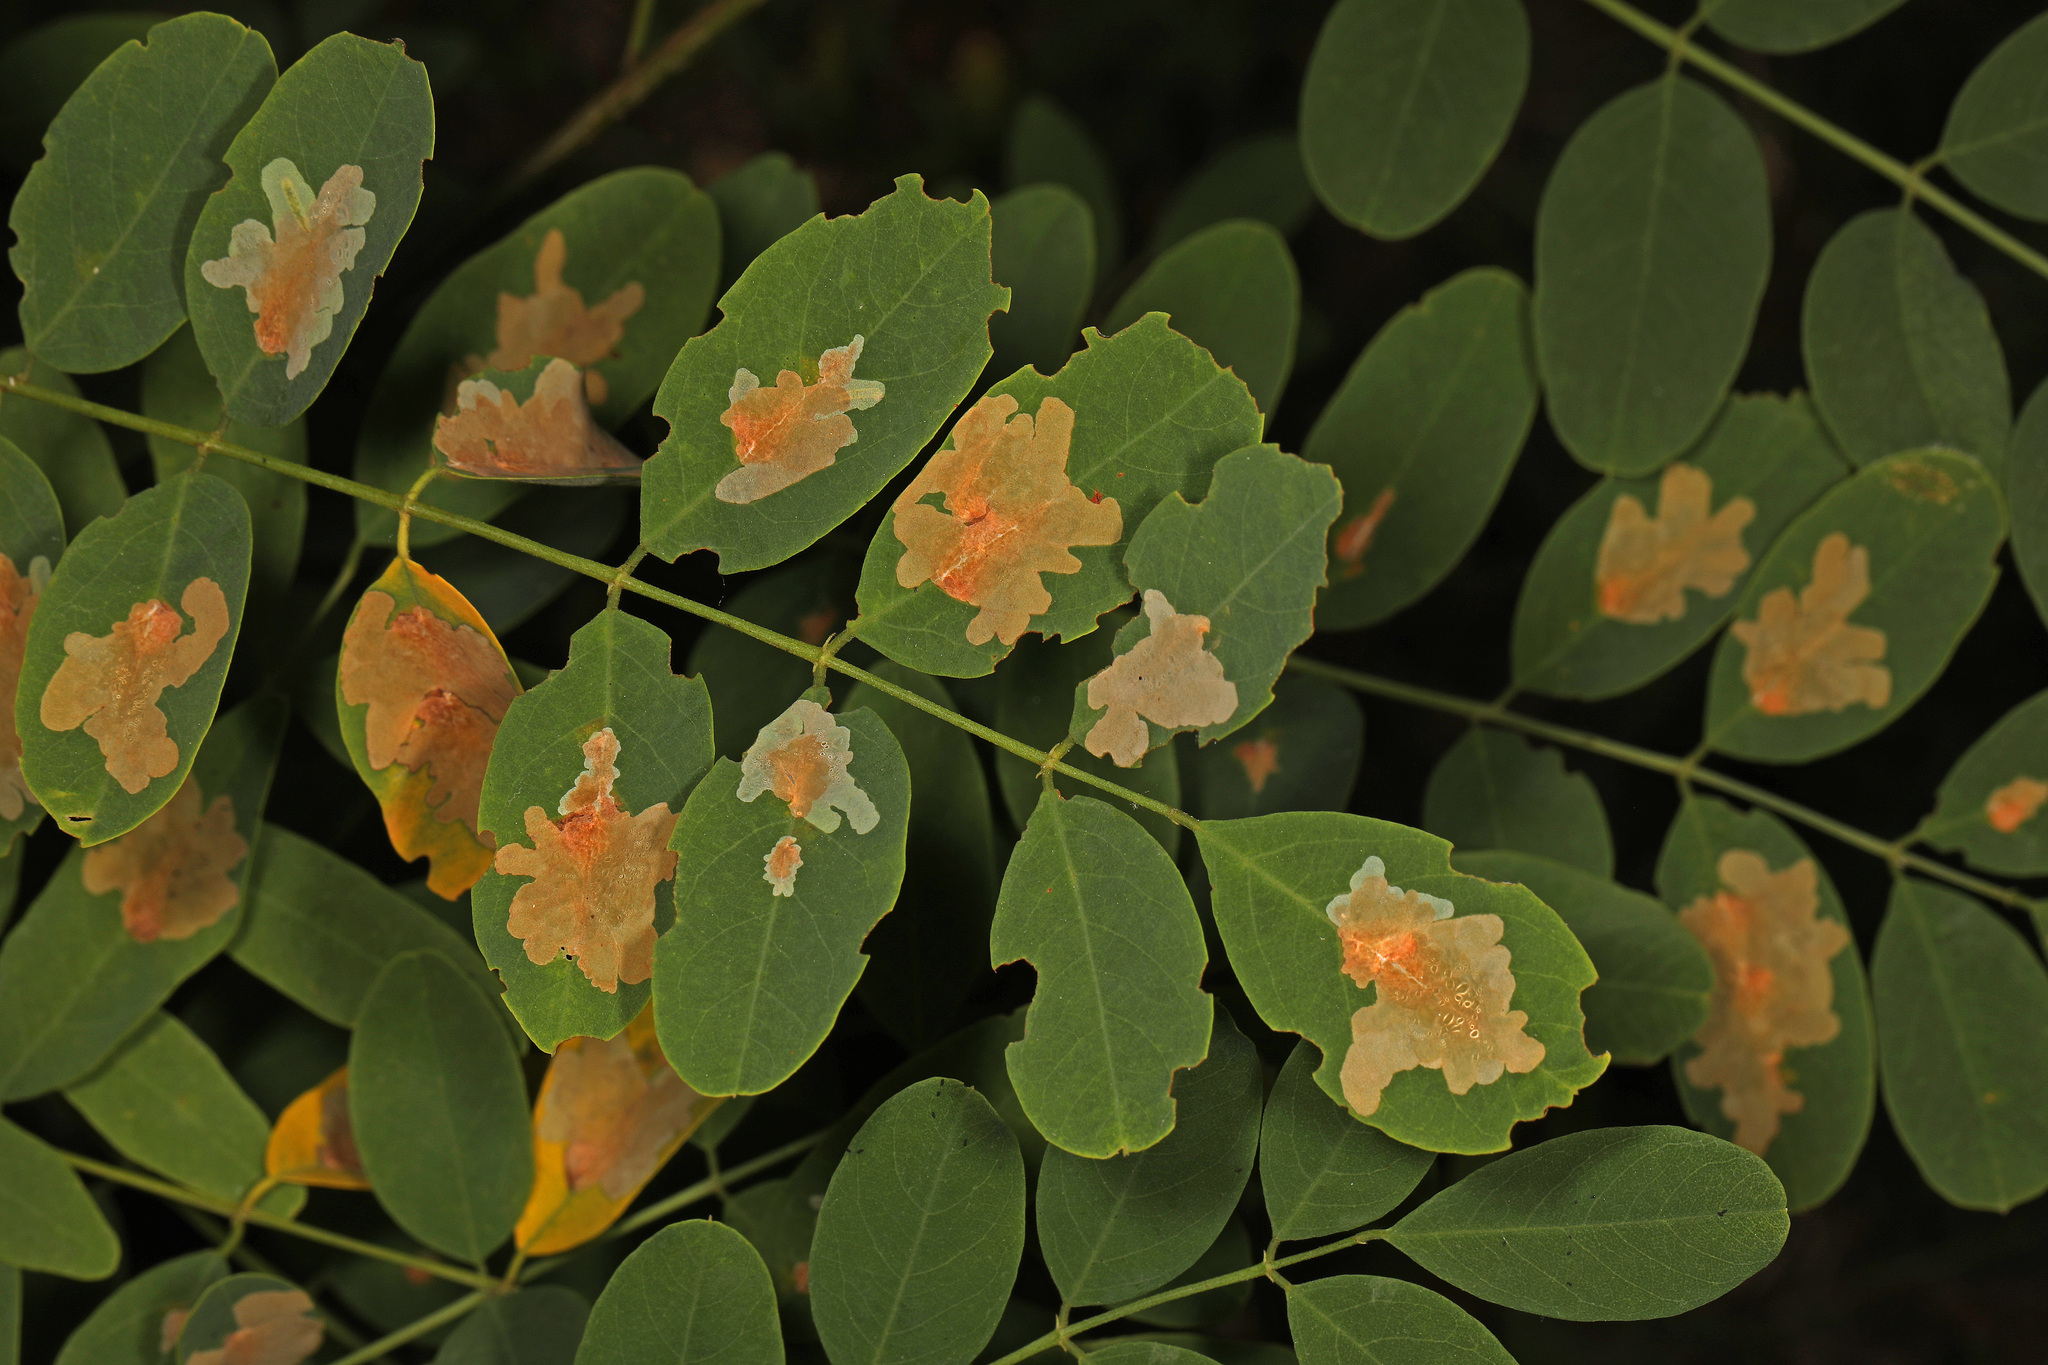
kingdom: Animalia
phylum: Arthropoda
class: Insecta
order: Lepidoptera
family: Gracillariidae
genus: Parectopa
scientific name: Parectopa robiniella
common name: Locust digitate leafminer
